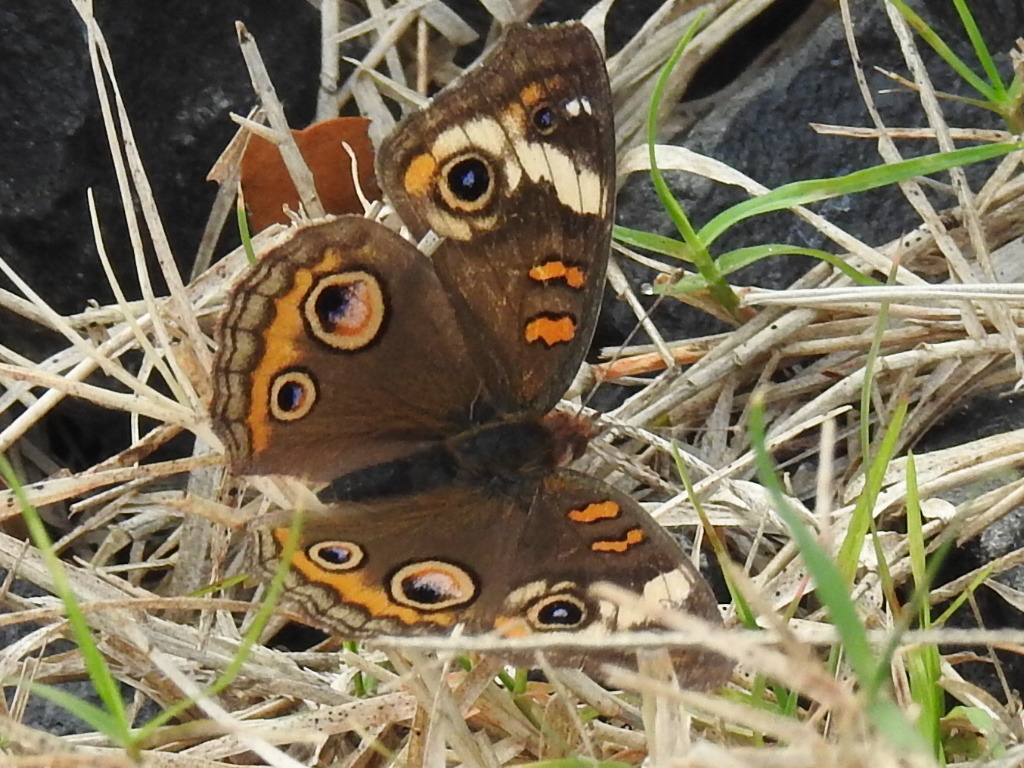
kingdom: Animalia
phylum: Arthropoda
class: Insecta
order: Lepidoptera
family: Nymphalidae
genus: Junonia
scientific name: Junonia coenia
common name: Common buckeye
